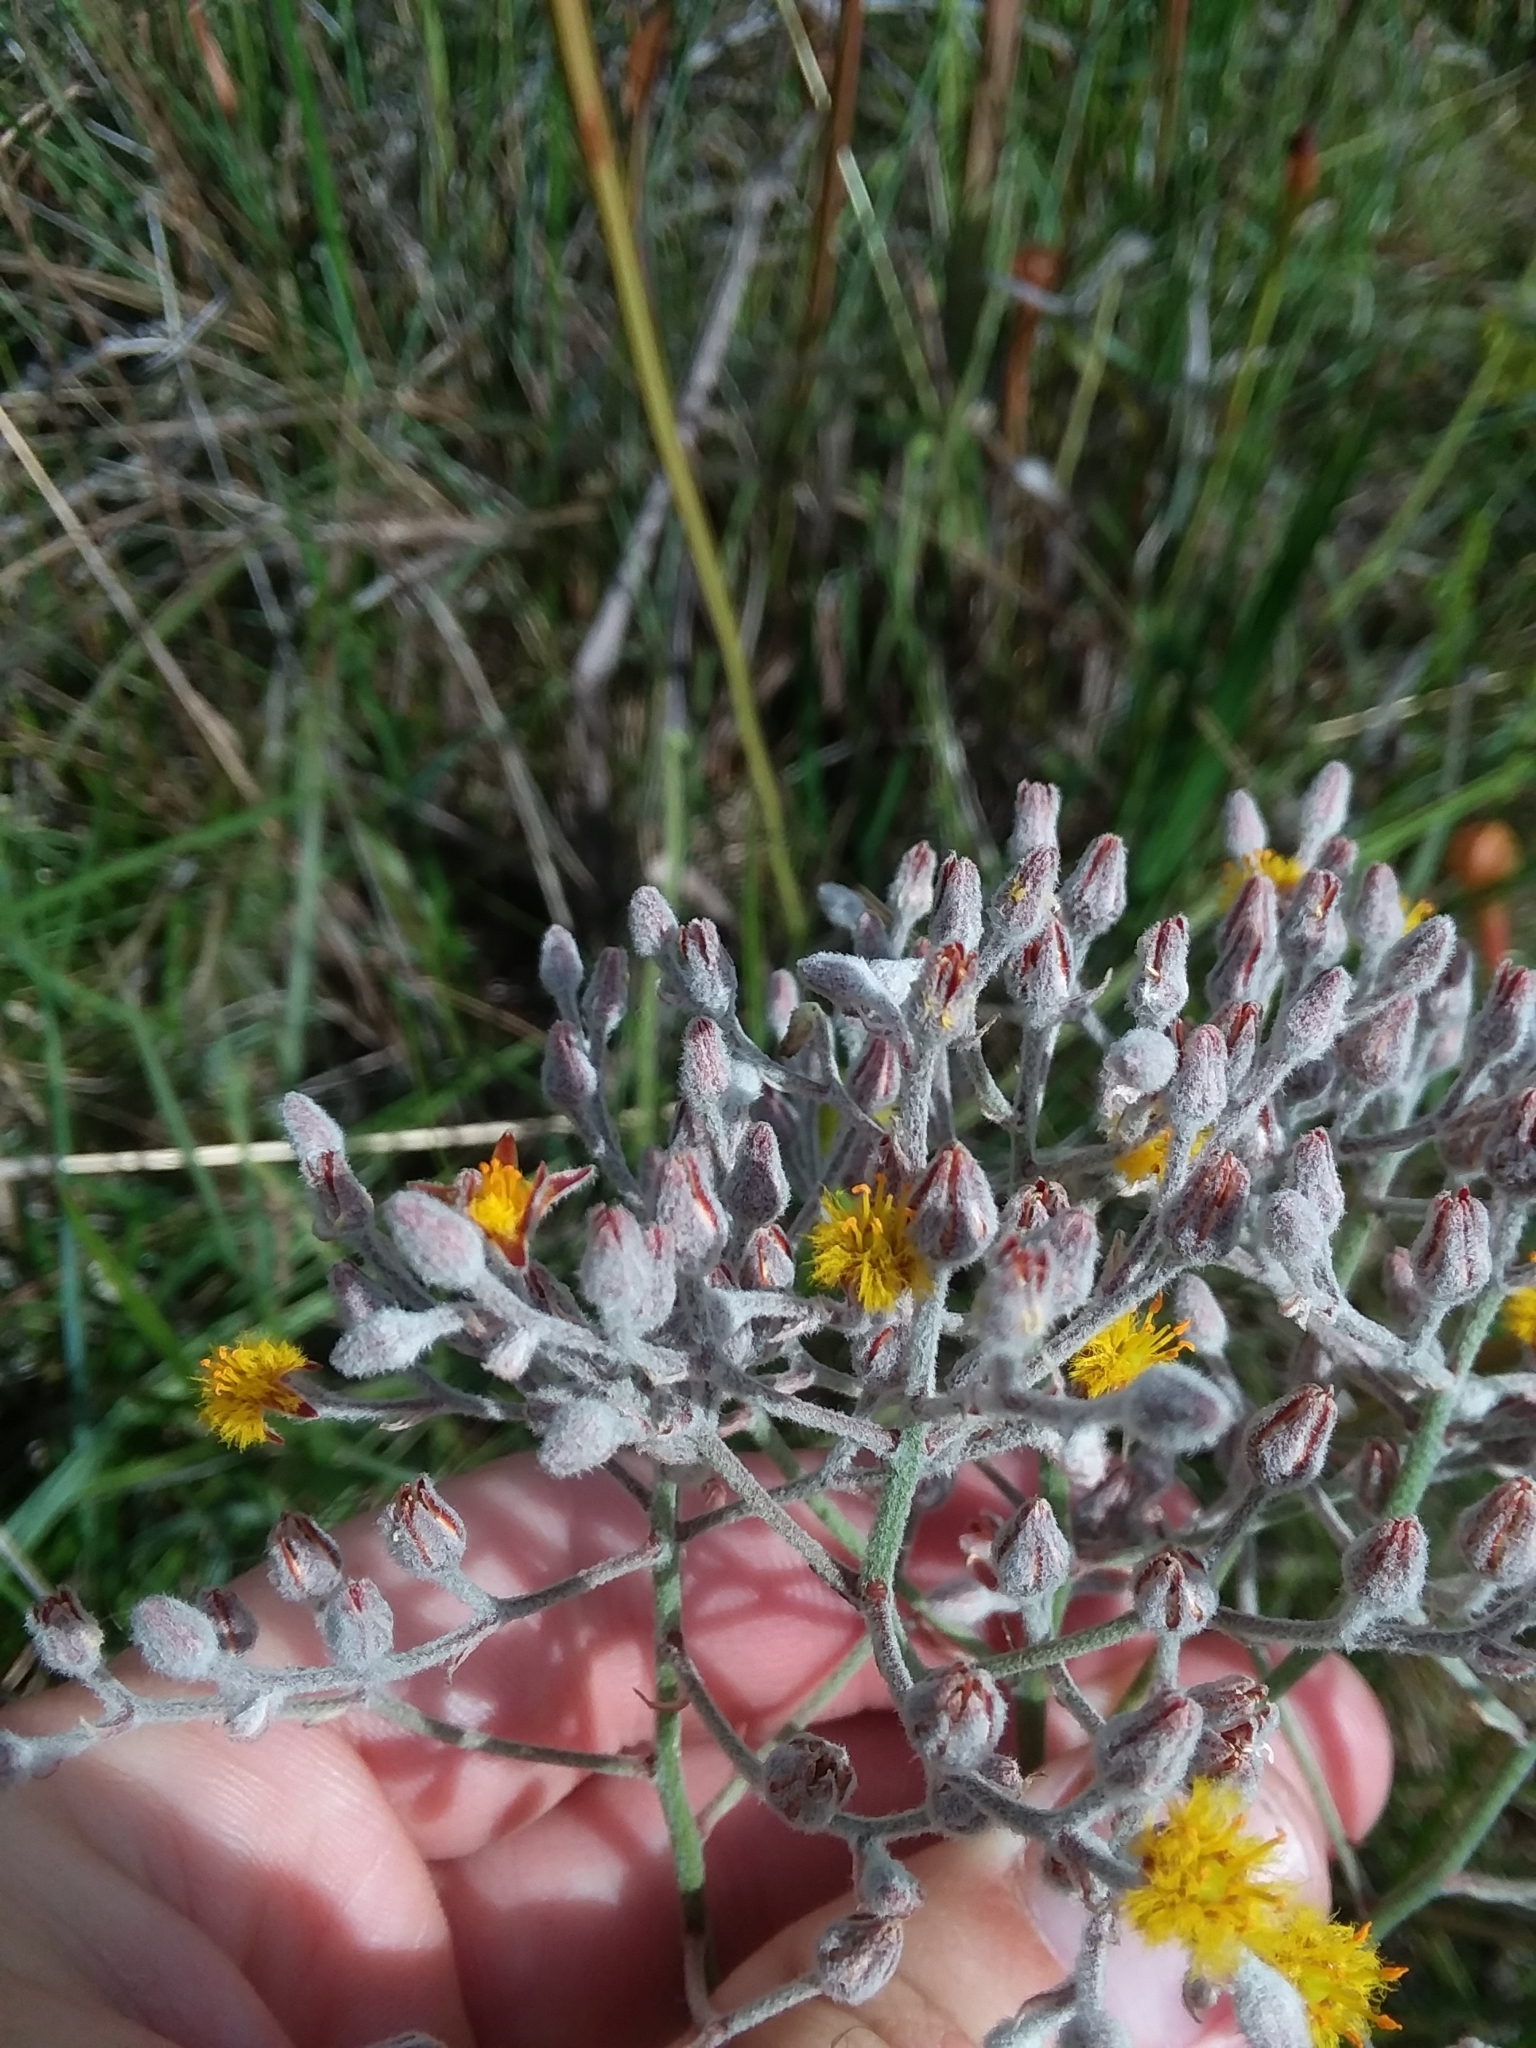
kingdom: Plantae
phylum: Tracheophyta
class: Liliopsida
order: Dioscoreales
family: Nartheciaceae
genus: Lophiola
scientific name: Lophiola aurea
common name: Golden-crest
